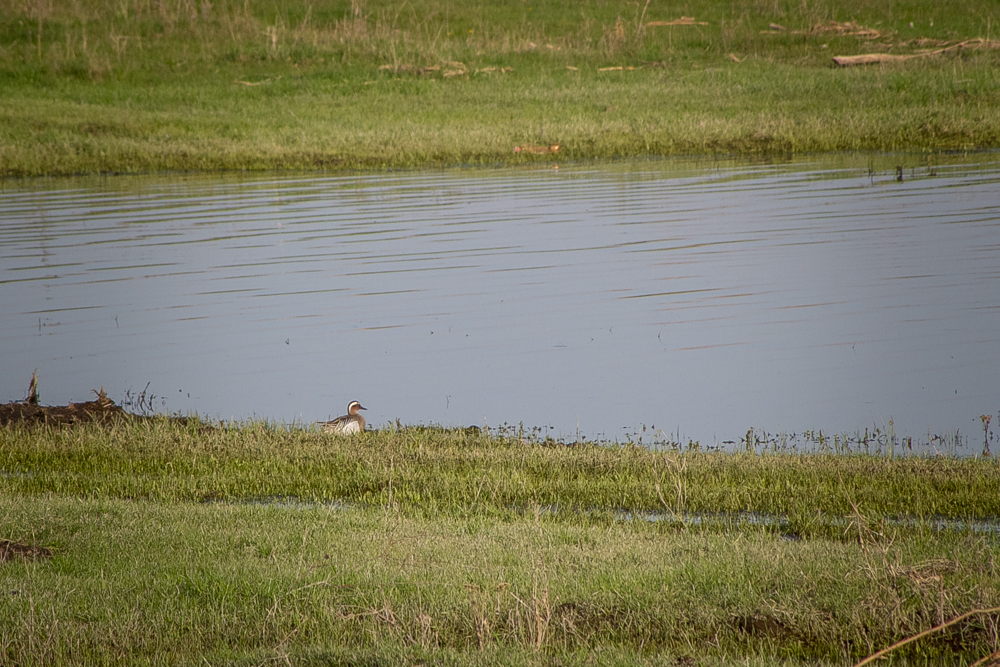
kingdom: Animalia
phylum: Chordata
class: Aves
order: Anseriformes
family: Anatidae
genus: Spatula
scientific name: Spatula querquedula
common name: Garganey
